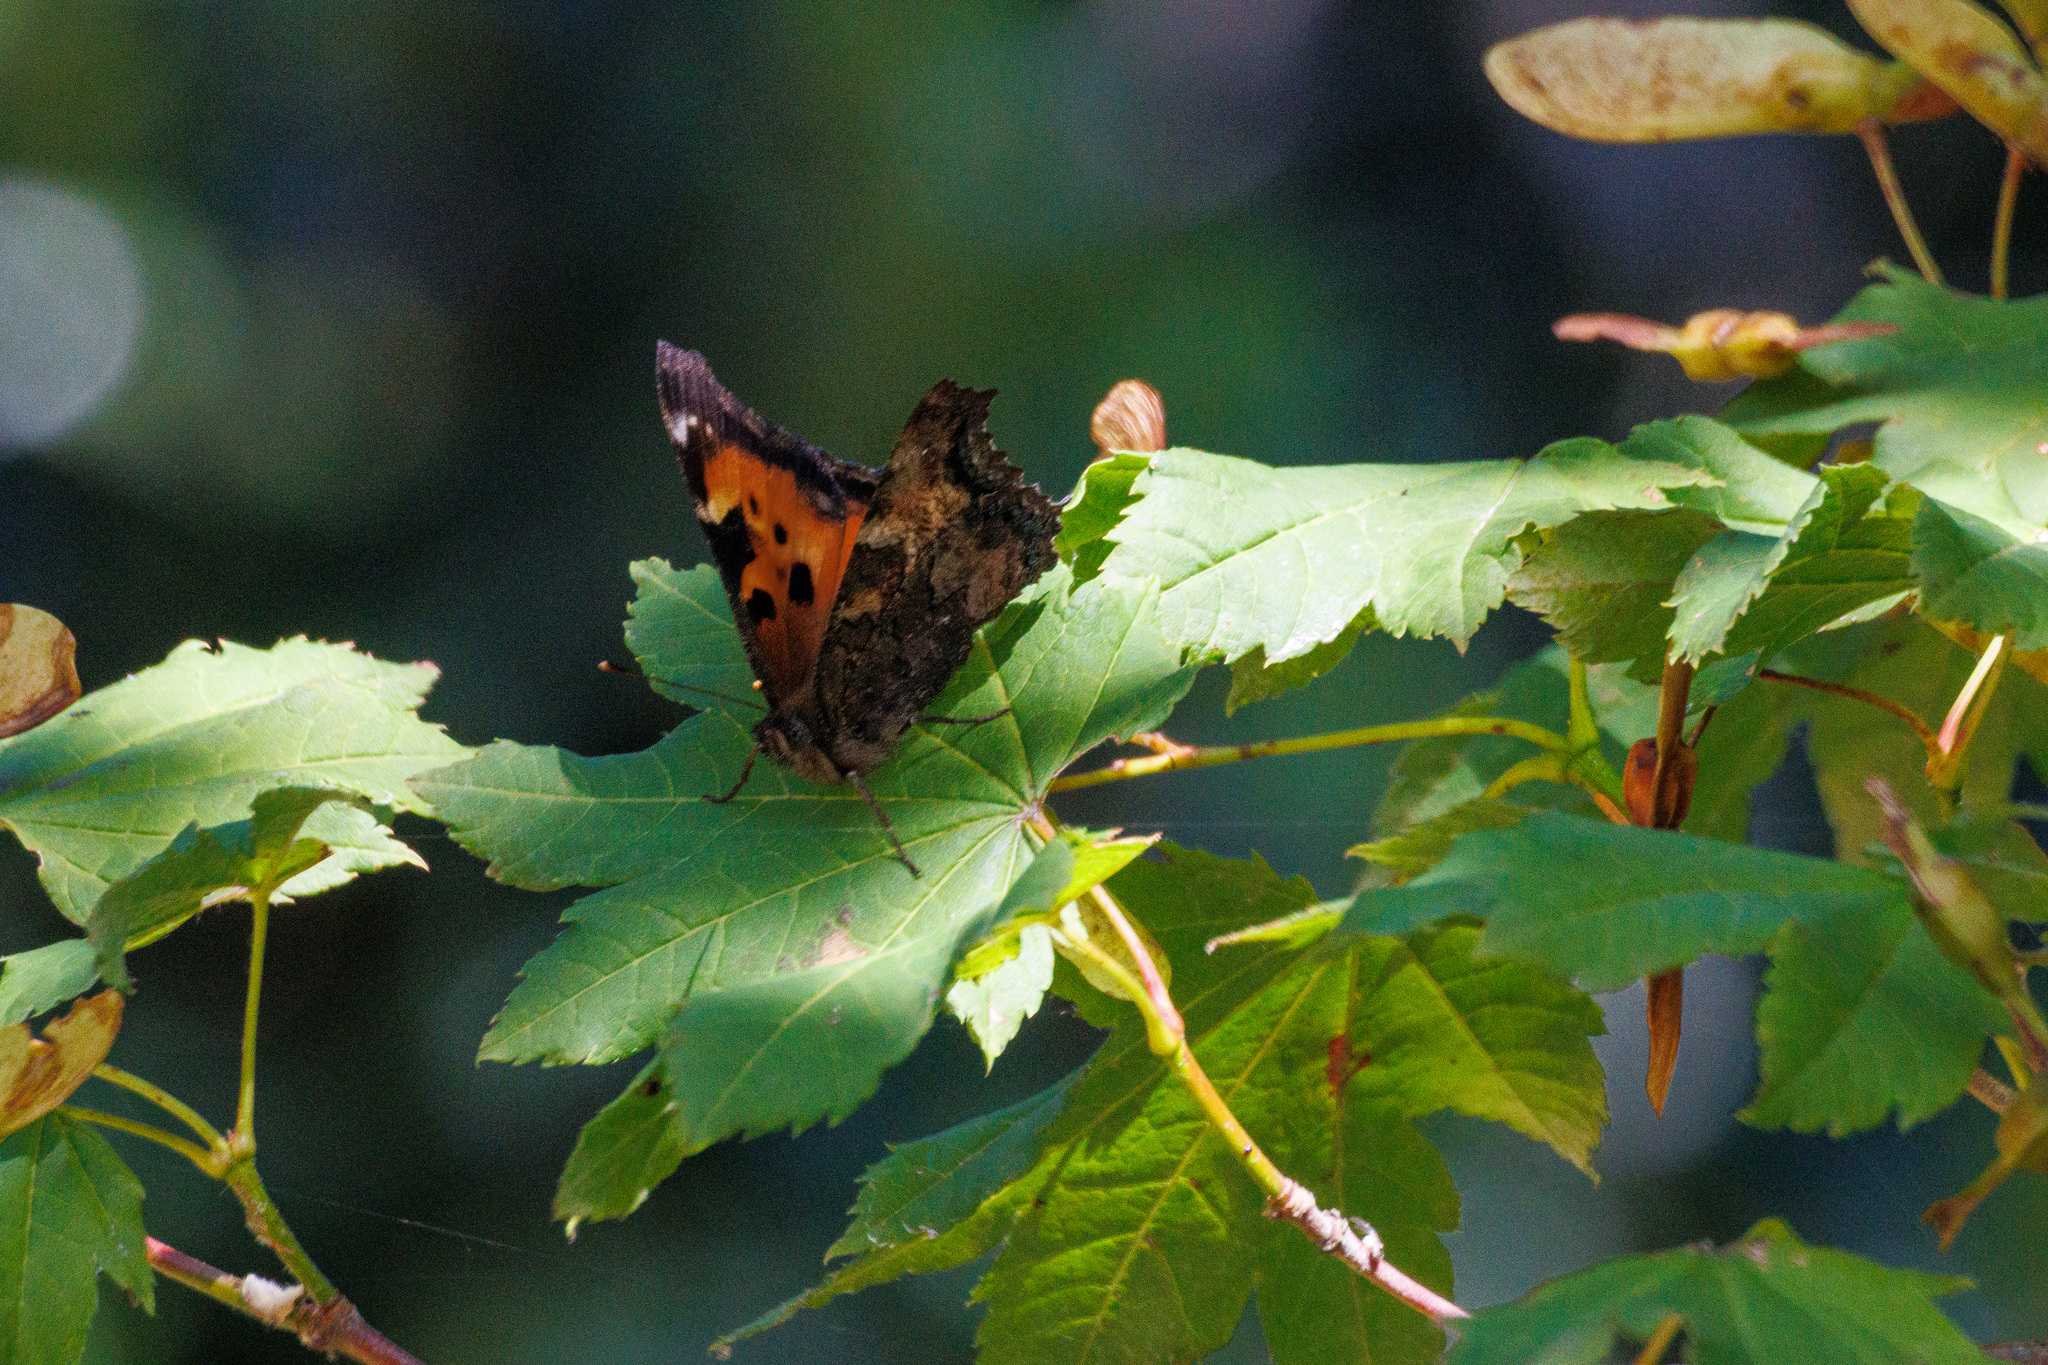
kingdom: Animalia
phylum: Arthropoda
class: Insecta
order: Lepidoptera
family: Nymphalidae
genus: Nymphalis
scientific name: Nymphalis californica
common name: California tortoiseshell
